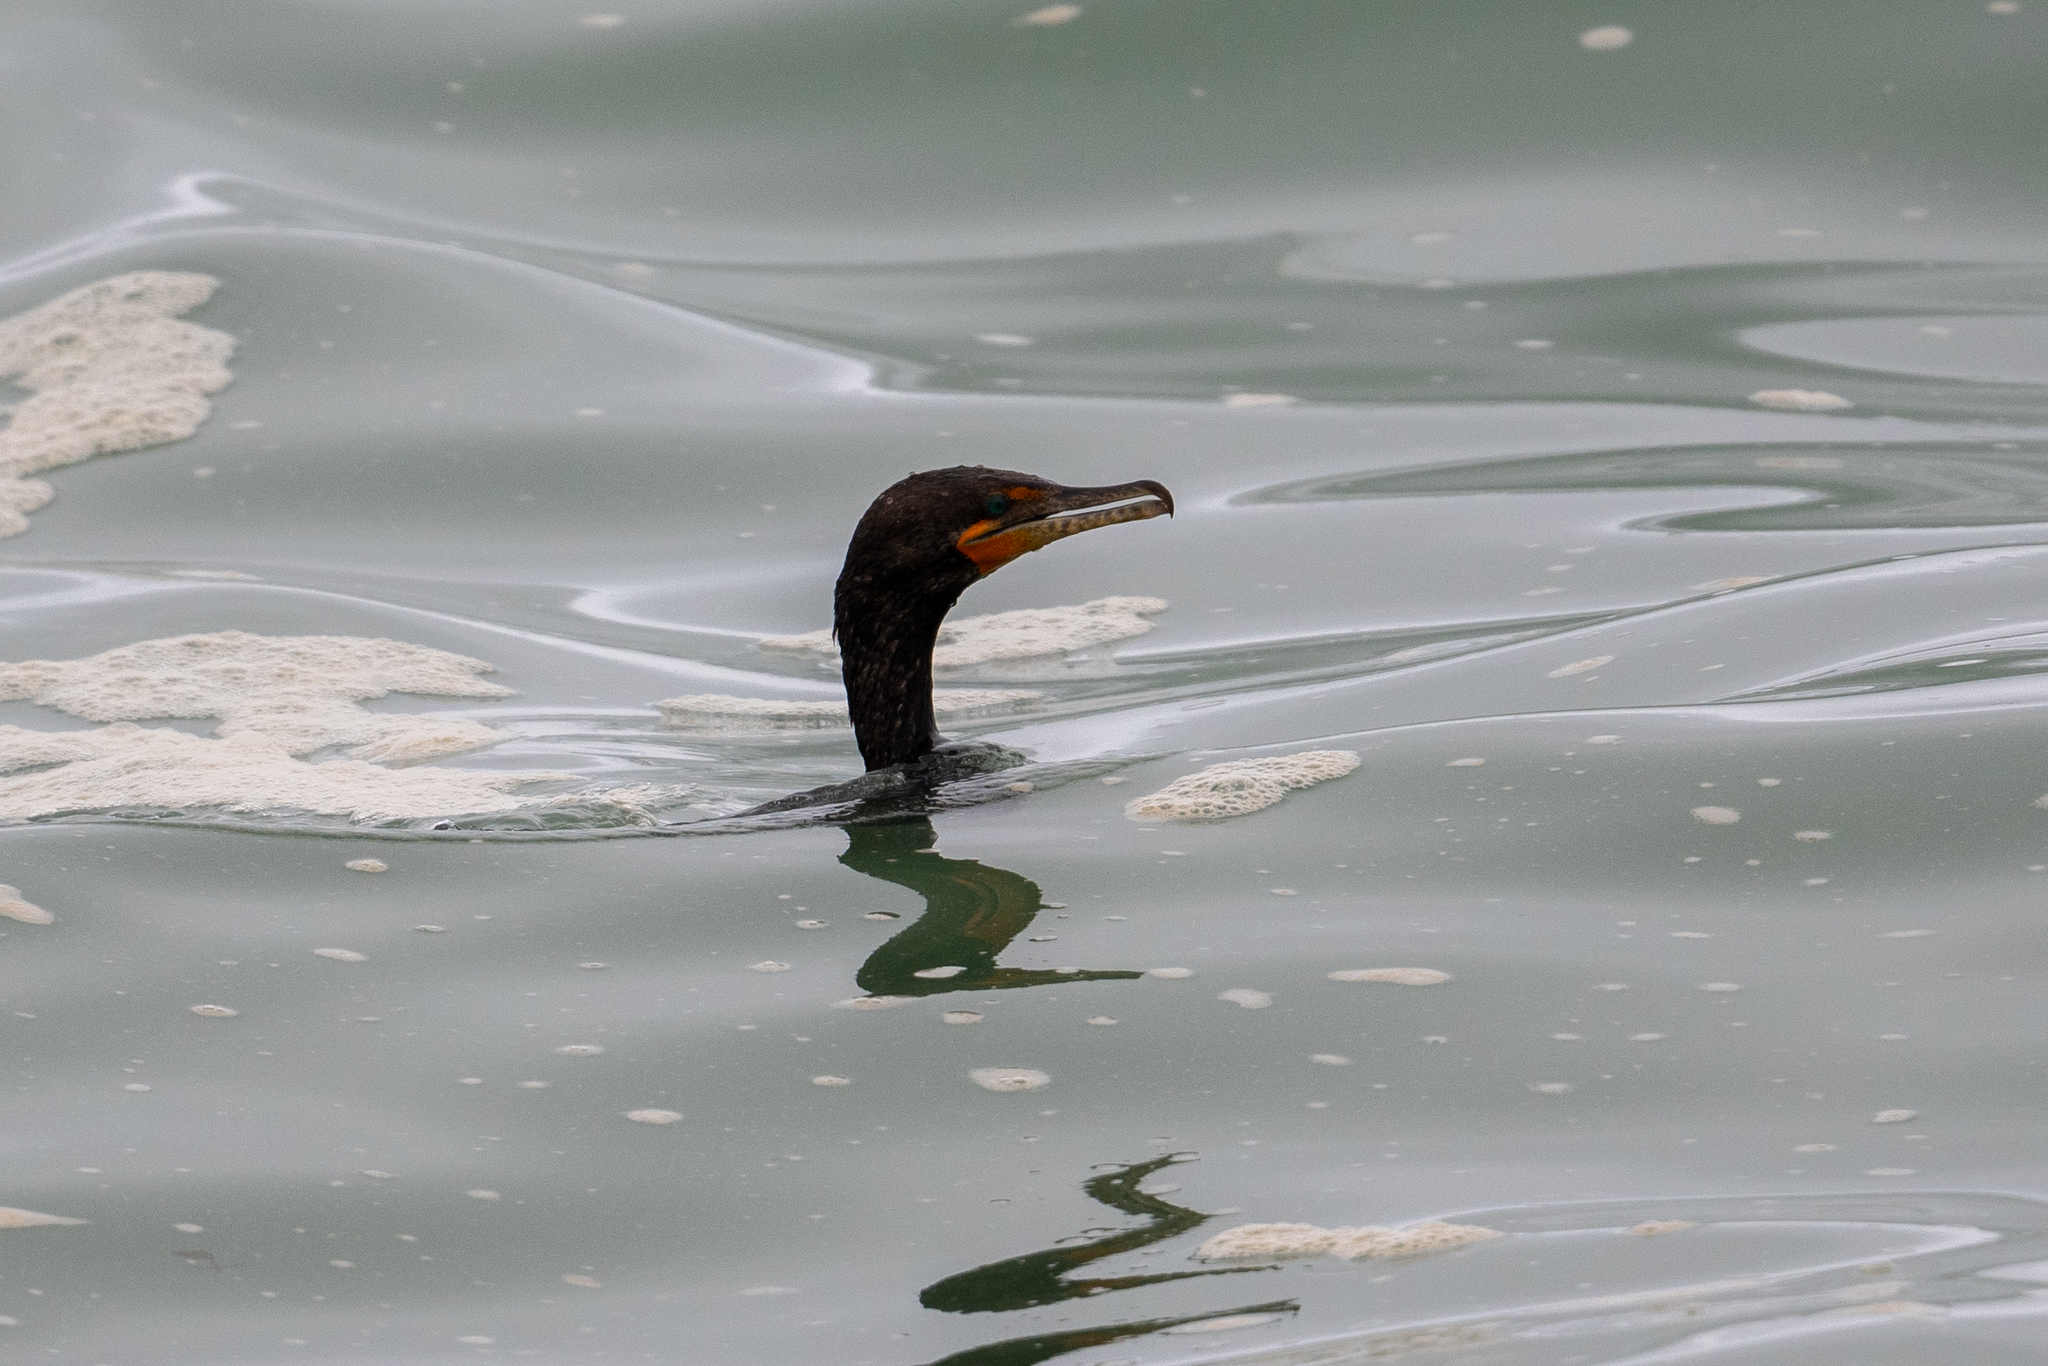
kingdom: Animalia
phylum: Chordata
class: Aves
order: Suliformes
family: Phalacrocoracidae
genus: Phalacrocorax
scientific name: Phalacrocorax auritus
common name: Double-crested cormorant
